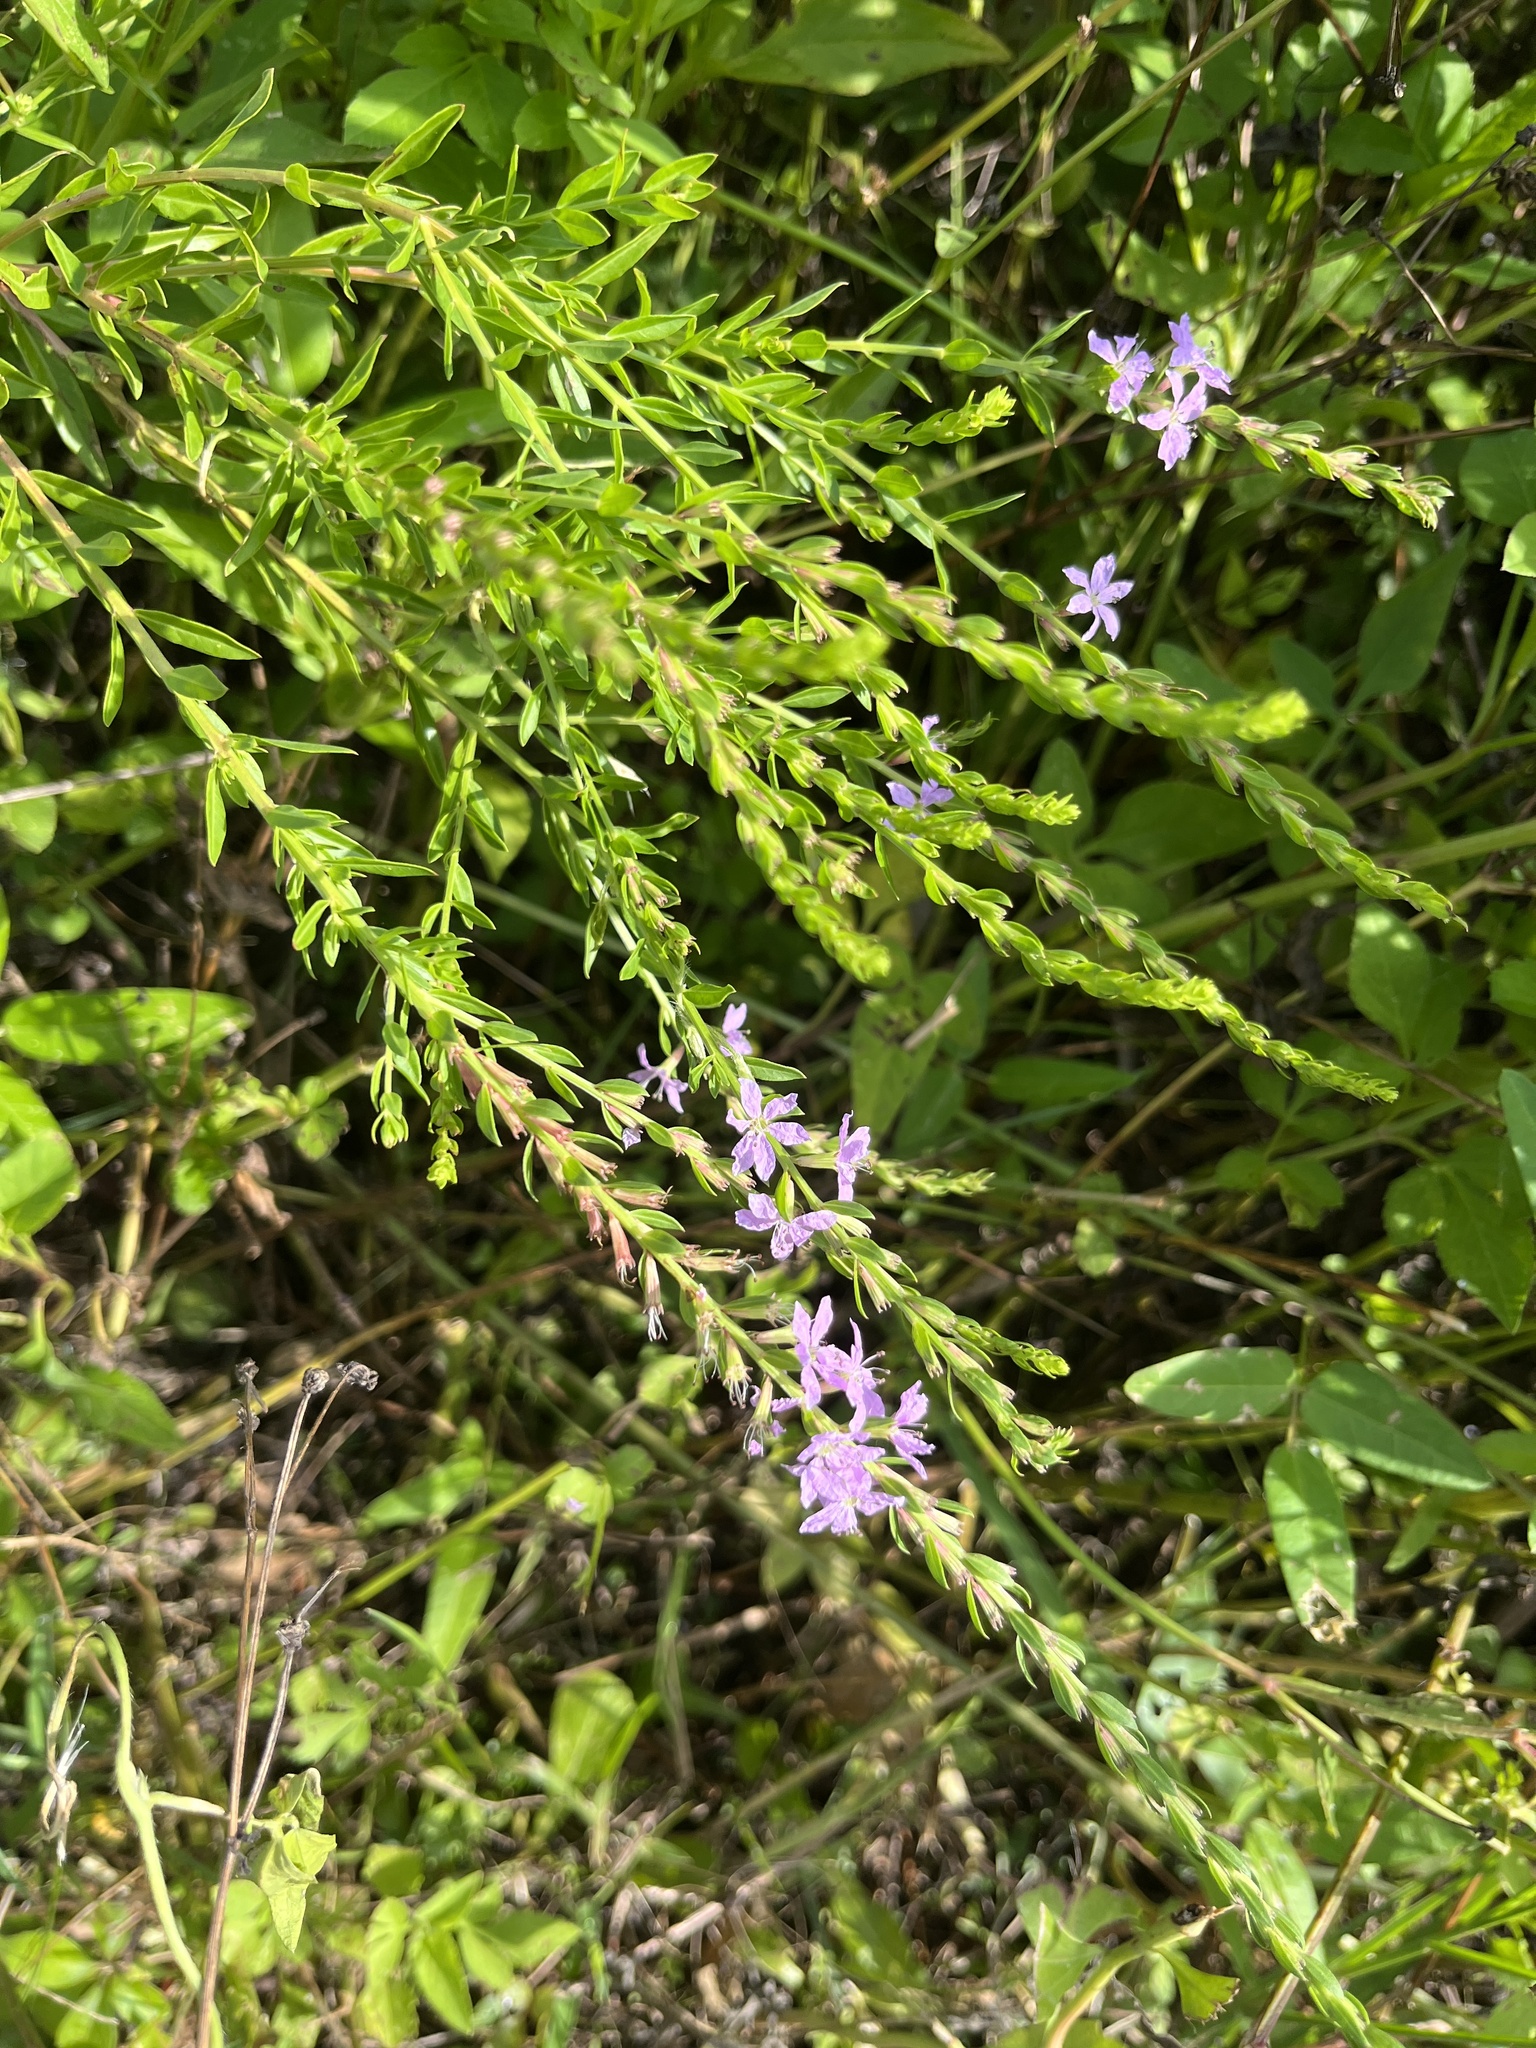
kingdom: Plantae
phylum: Tracheophyta
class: Magnoliopsida
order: Myrtales
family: Lythraceae
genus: Lythrum
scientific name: Lythrum alatum
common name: Winged loosestrife
